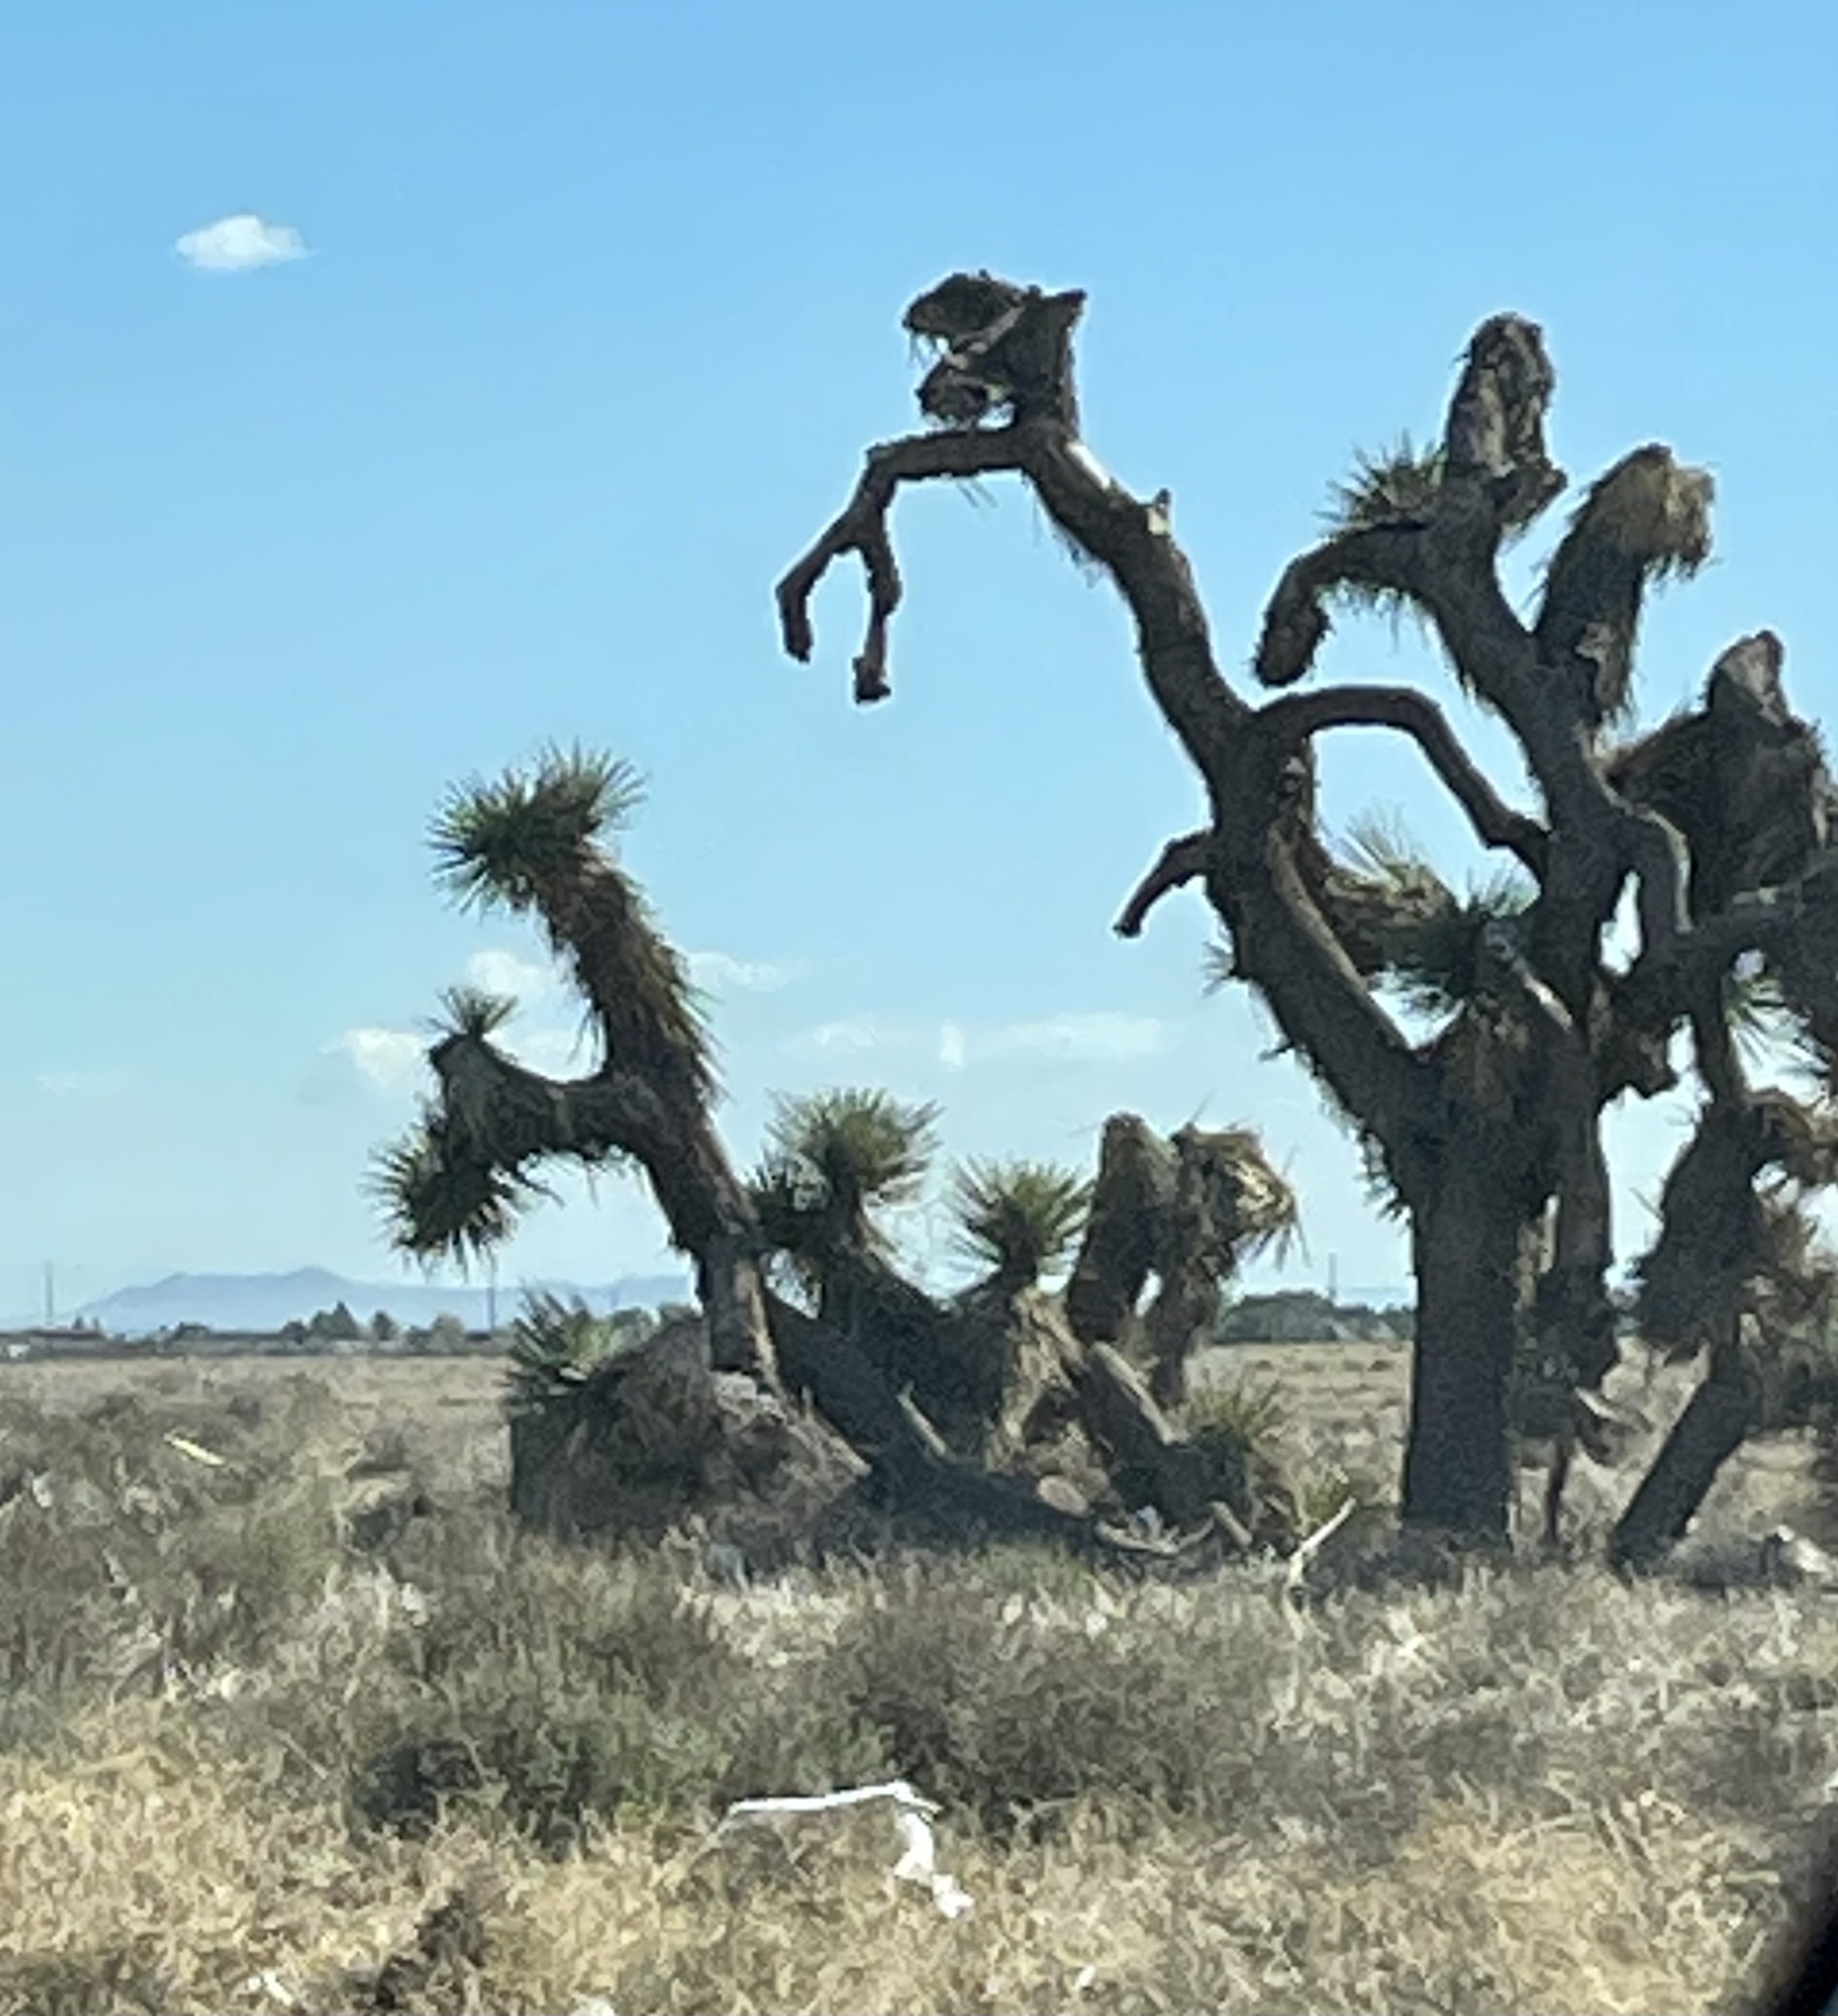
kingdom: Plantae
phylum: Tracheophyta
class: Liliopsida
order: Asparagales
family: Asparagaceae
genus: Yucca
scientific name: Yucca brevifolia
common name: Joshua tree
